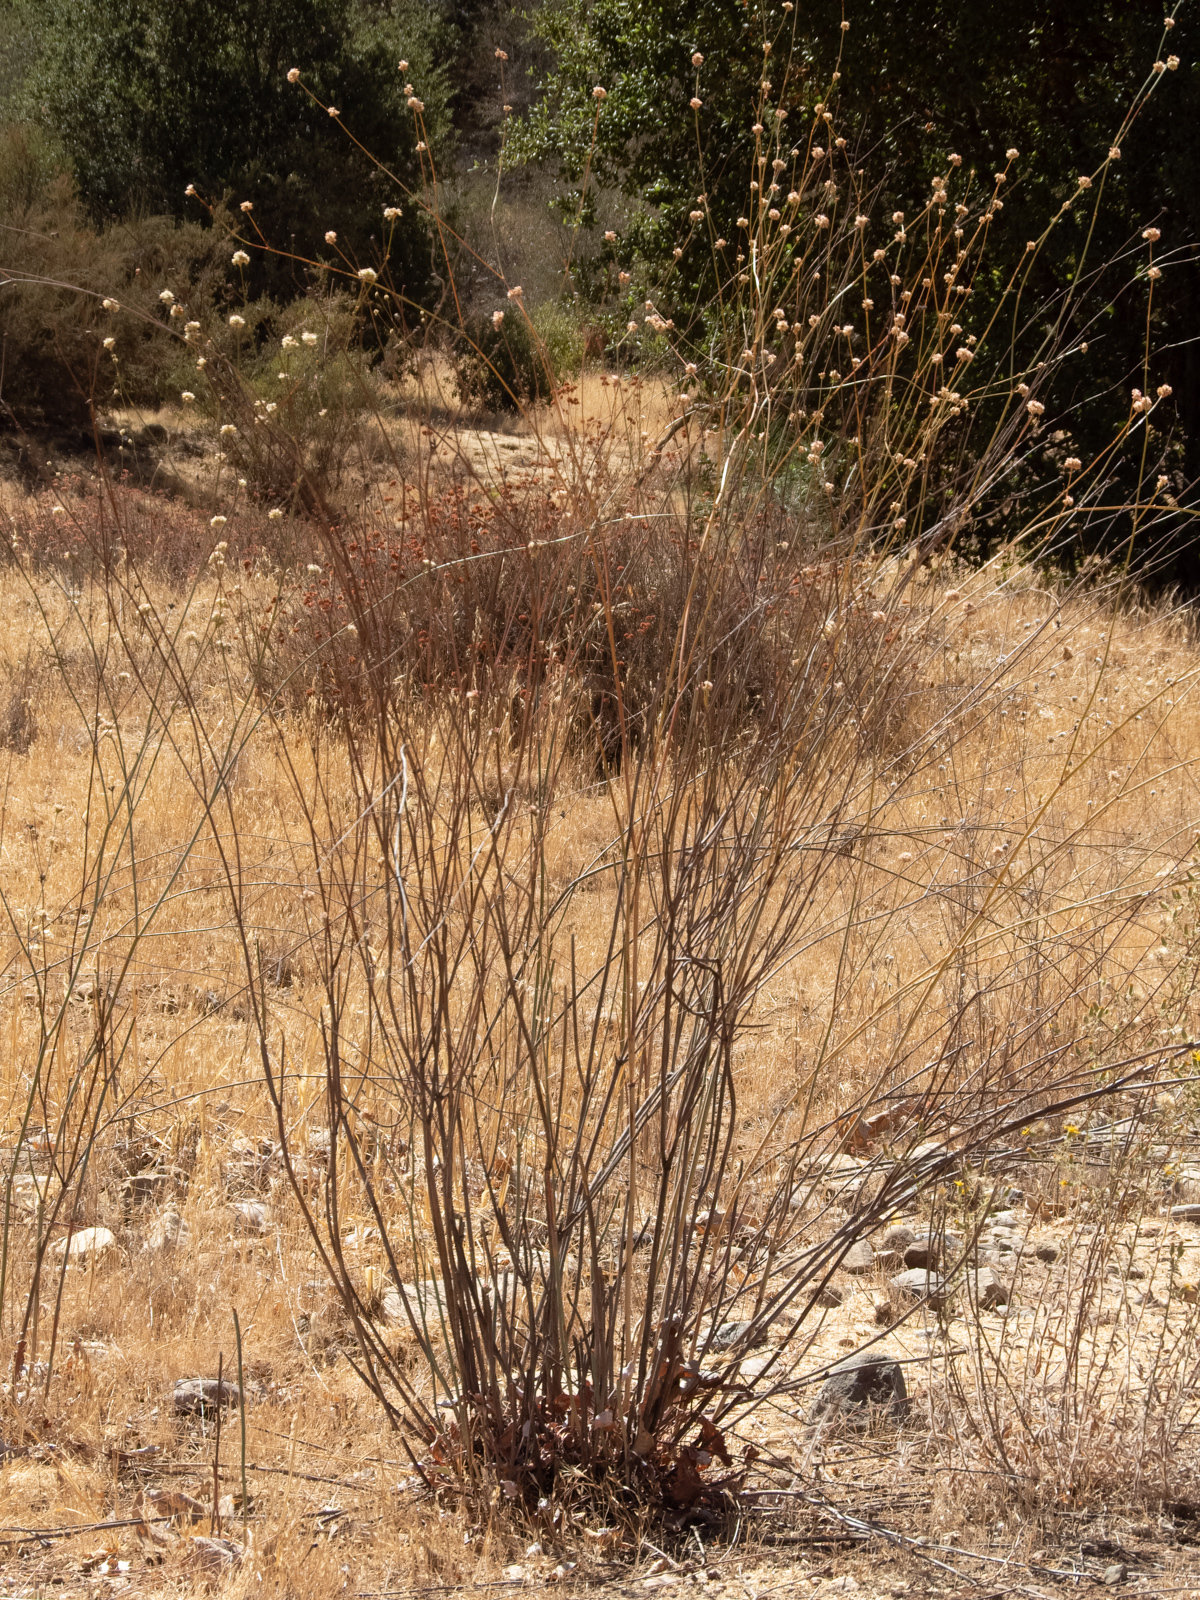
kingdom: Plantae
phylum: Tracheophyta
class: Magnoliopsida
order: Caryophyllales
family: Polygonaceae
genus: Eriogonum
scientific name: Eriogonum nudum
